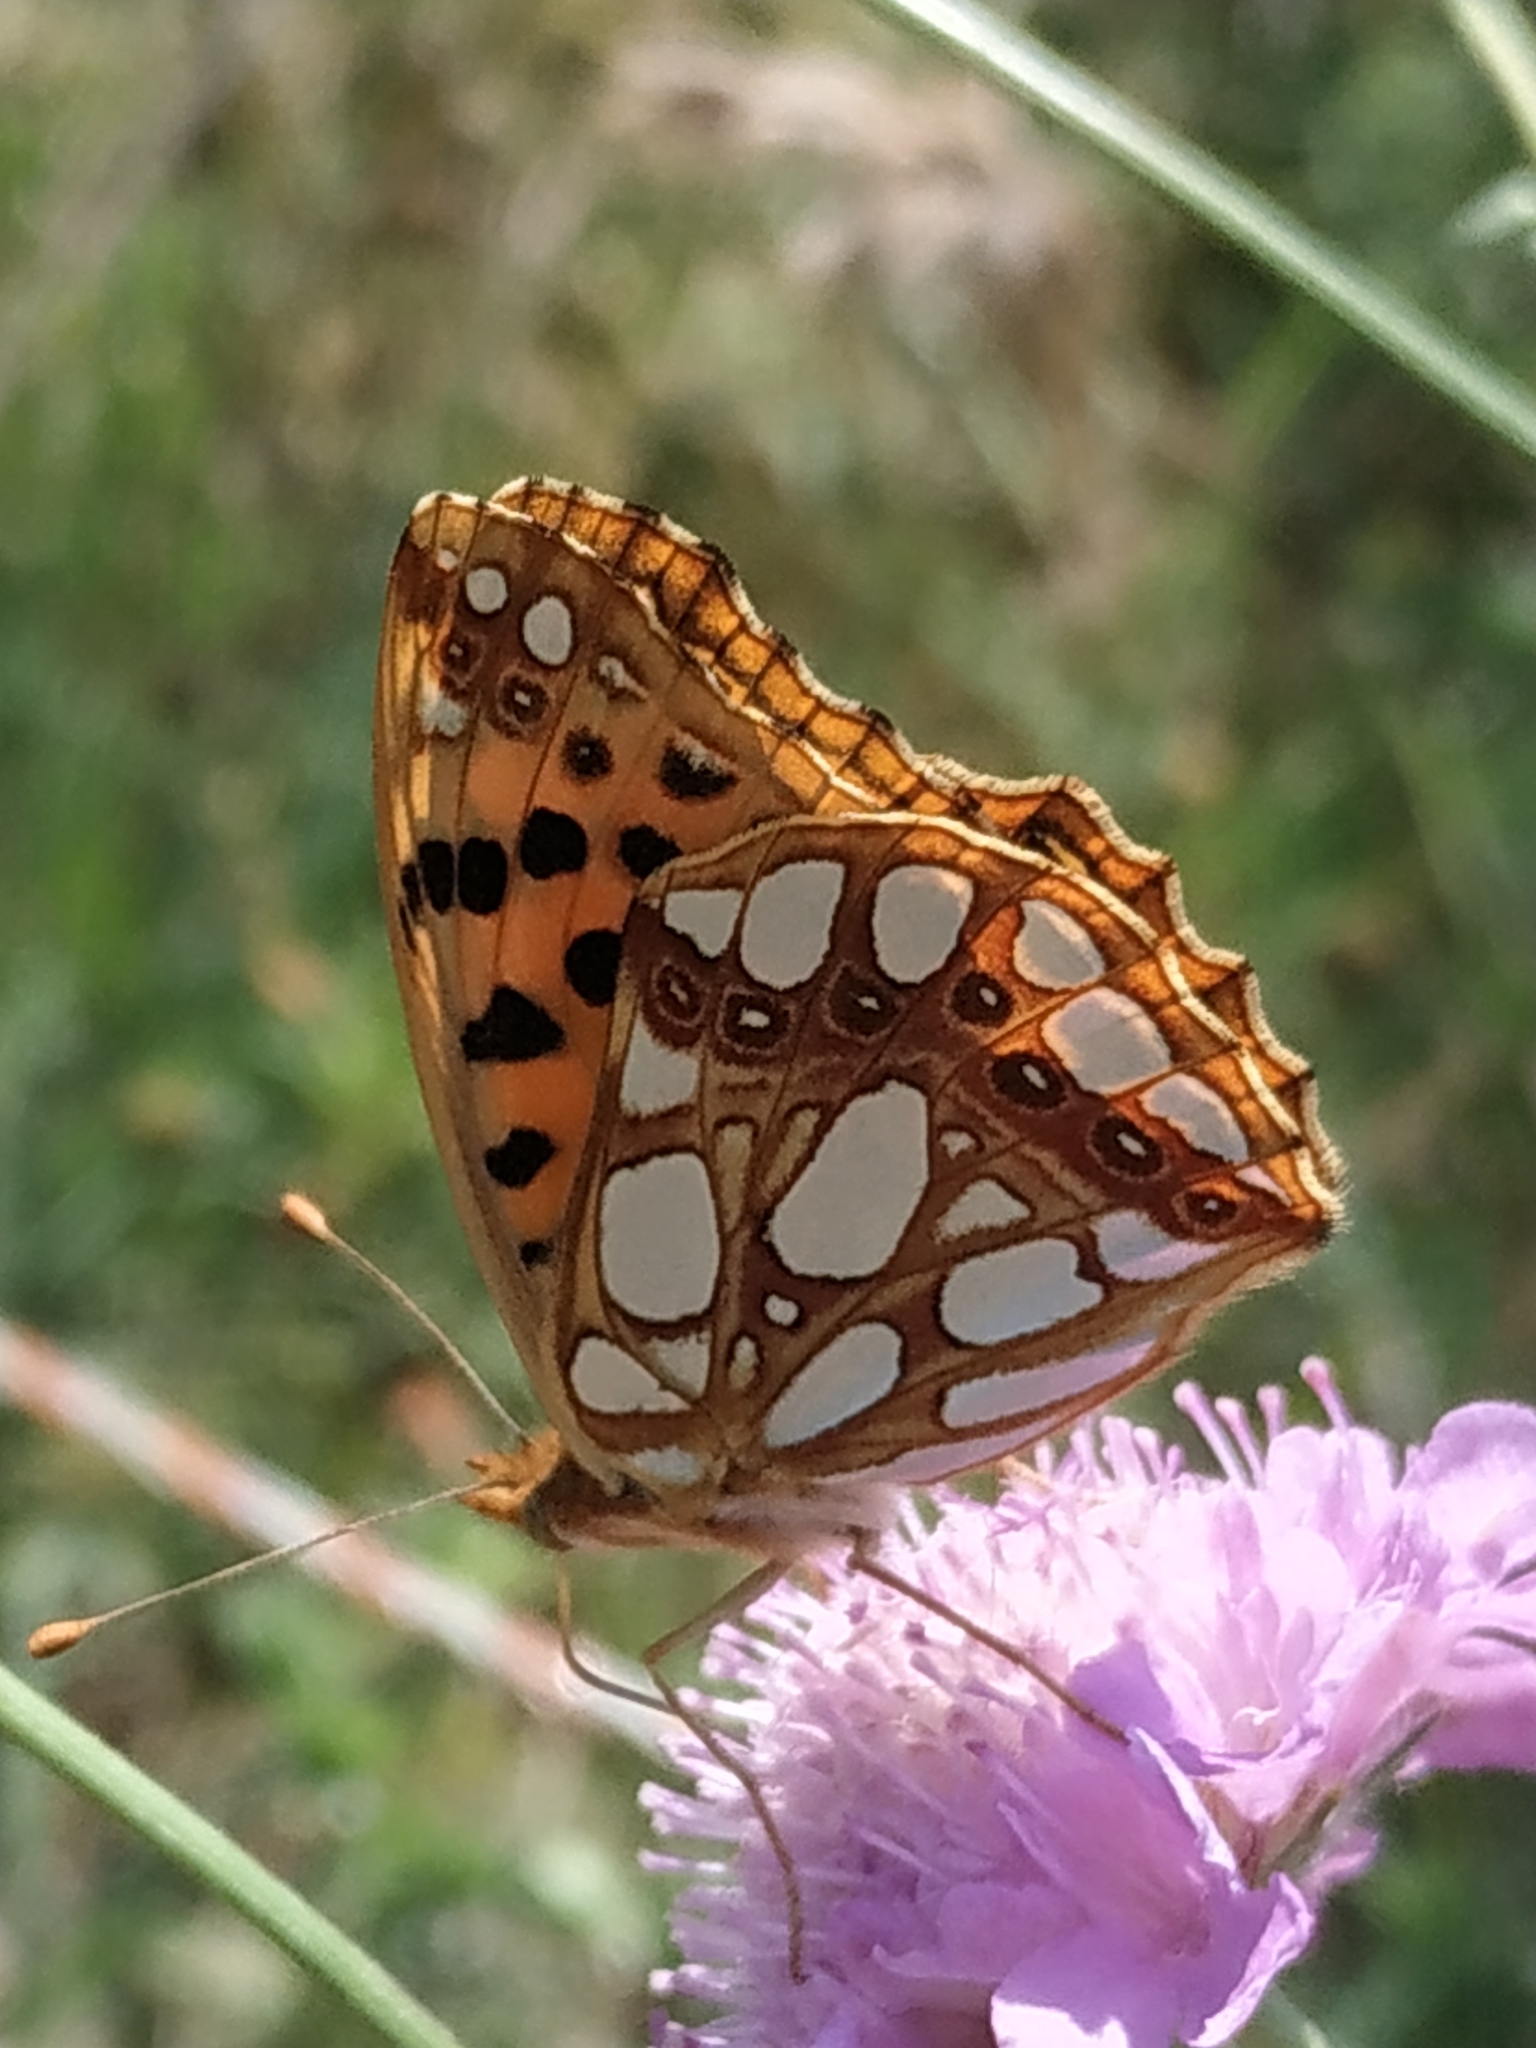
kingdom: Animalia
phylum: Arthropoda
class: Insecta
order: Lepidoptera
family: Nymphalidae
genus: Issoria
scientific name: Issoria lathonia
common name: Queen of spain fritillary
